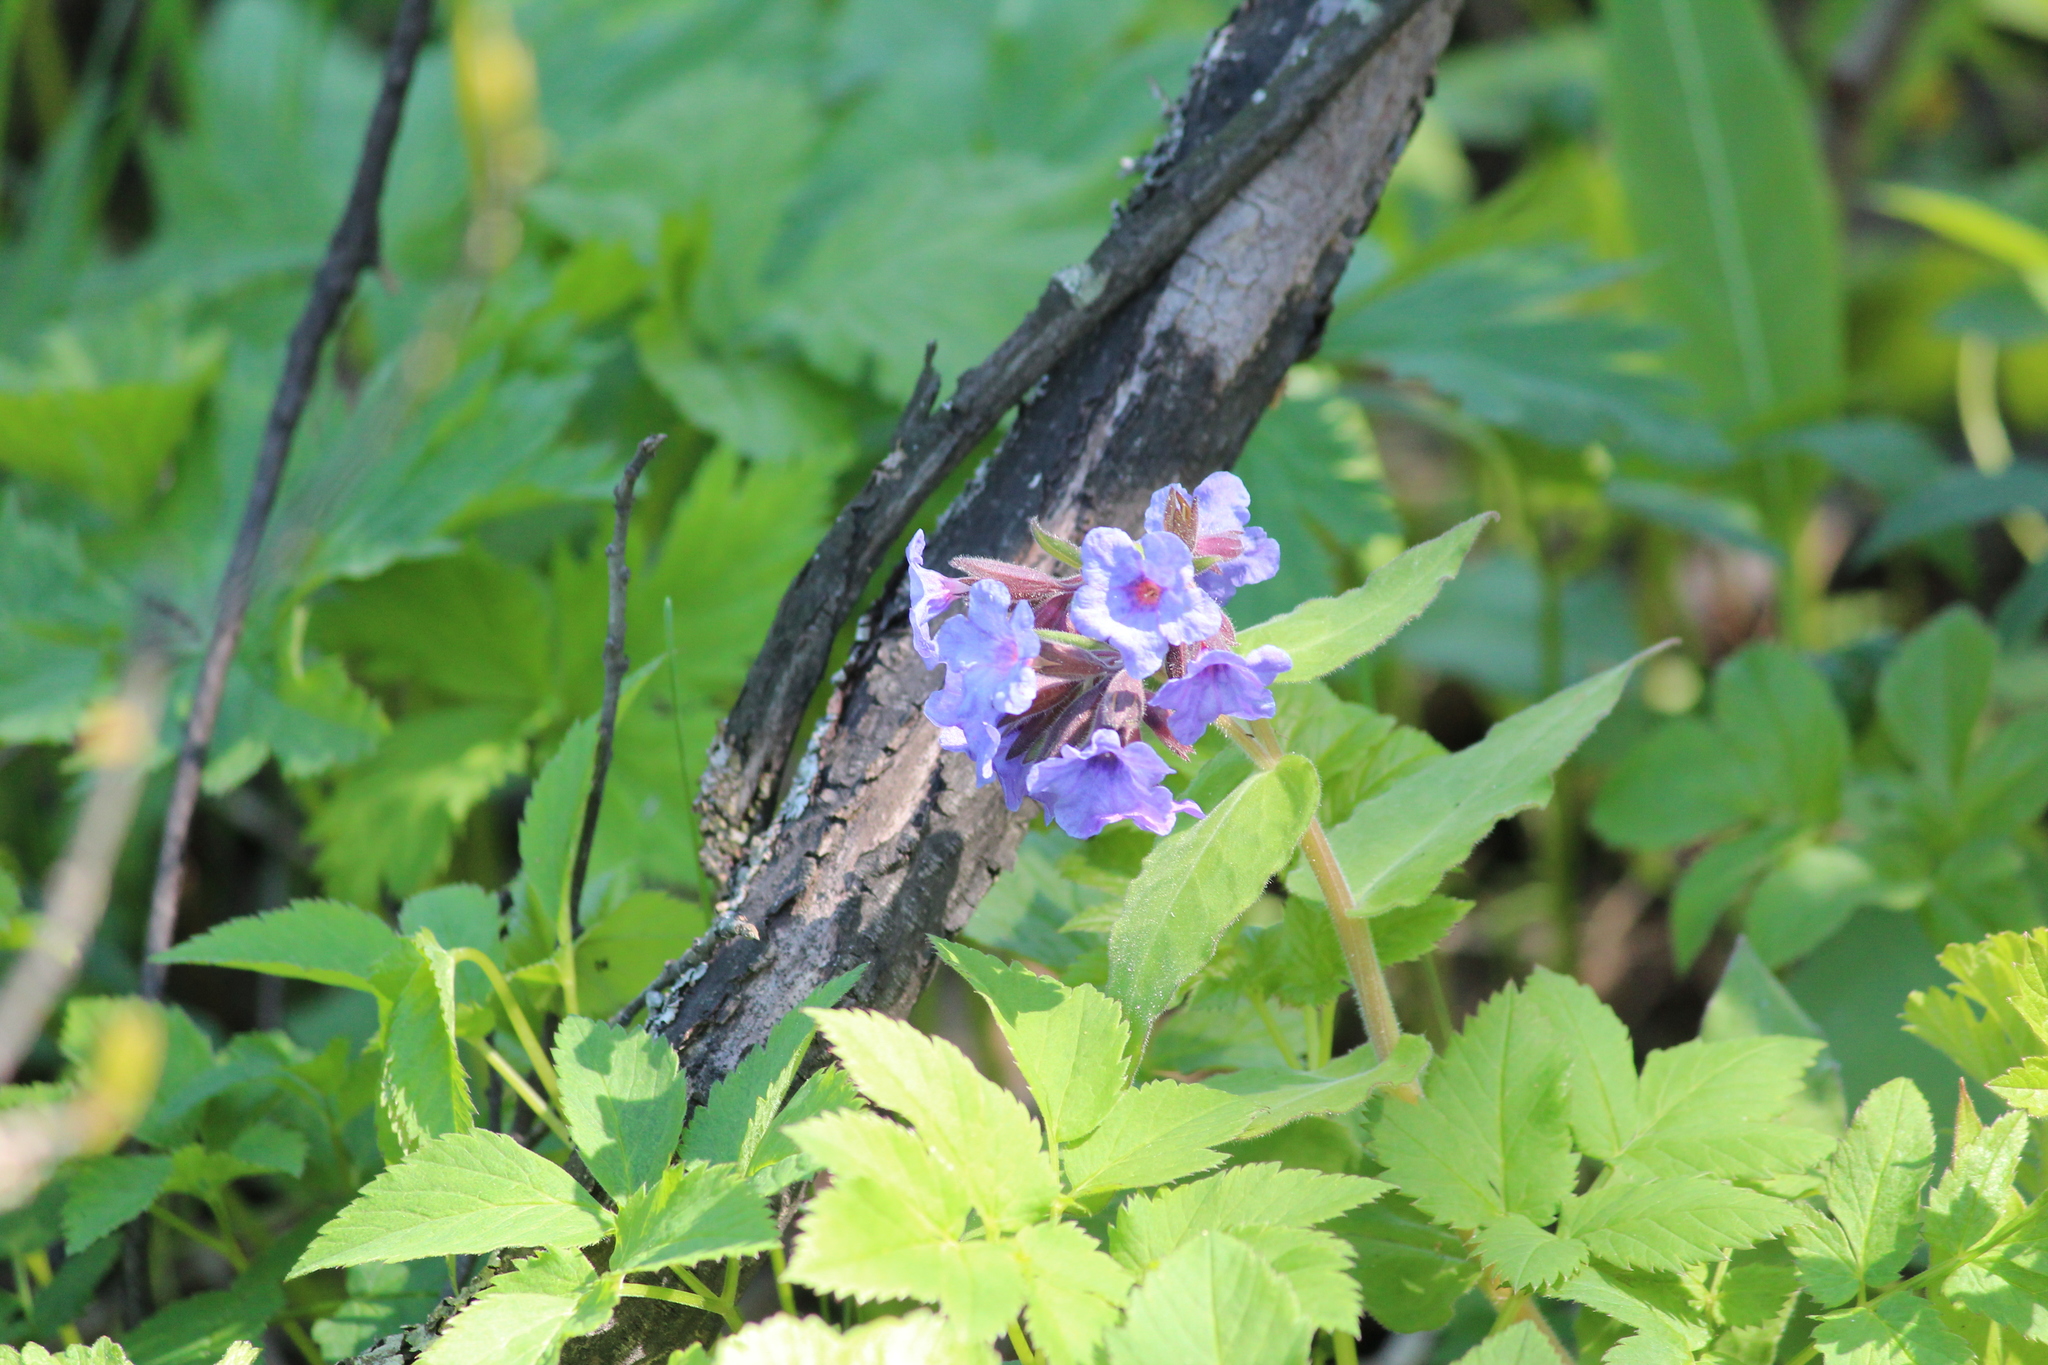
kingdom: Plantae
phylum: Tracheophyta
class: Magnoliopsida
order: Boraginales
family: Boraginaceae
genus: Pulmonaria
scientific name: Pulmonaria mollis
